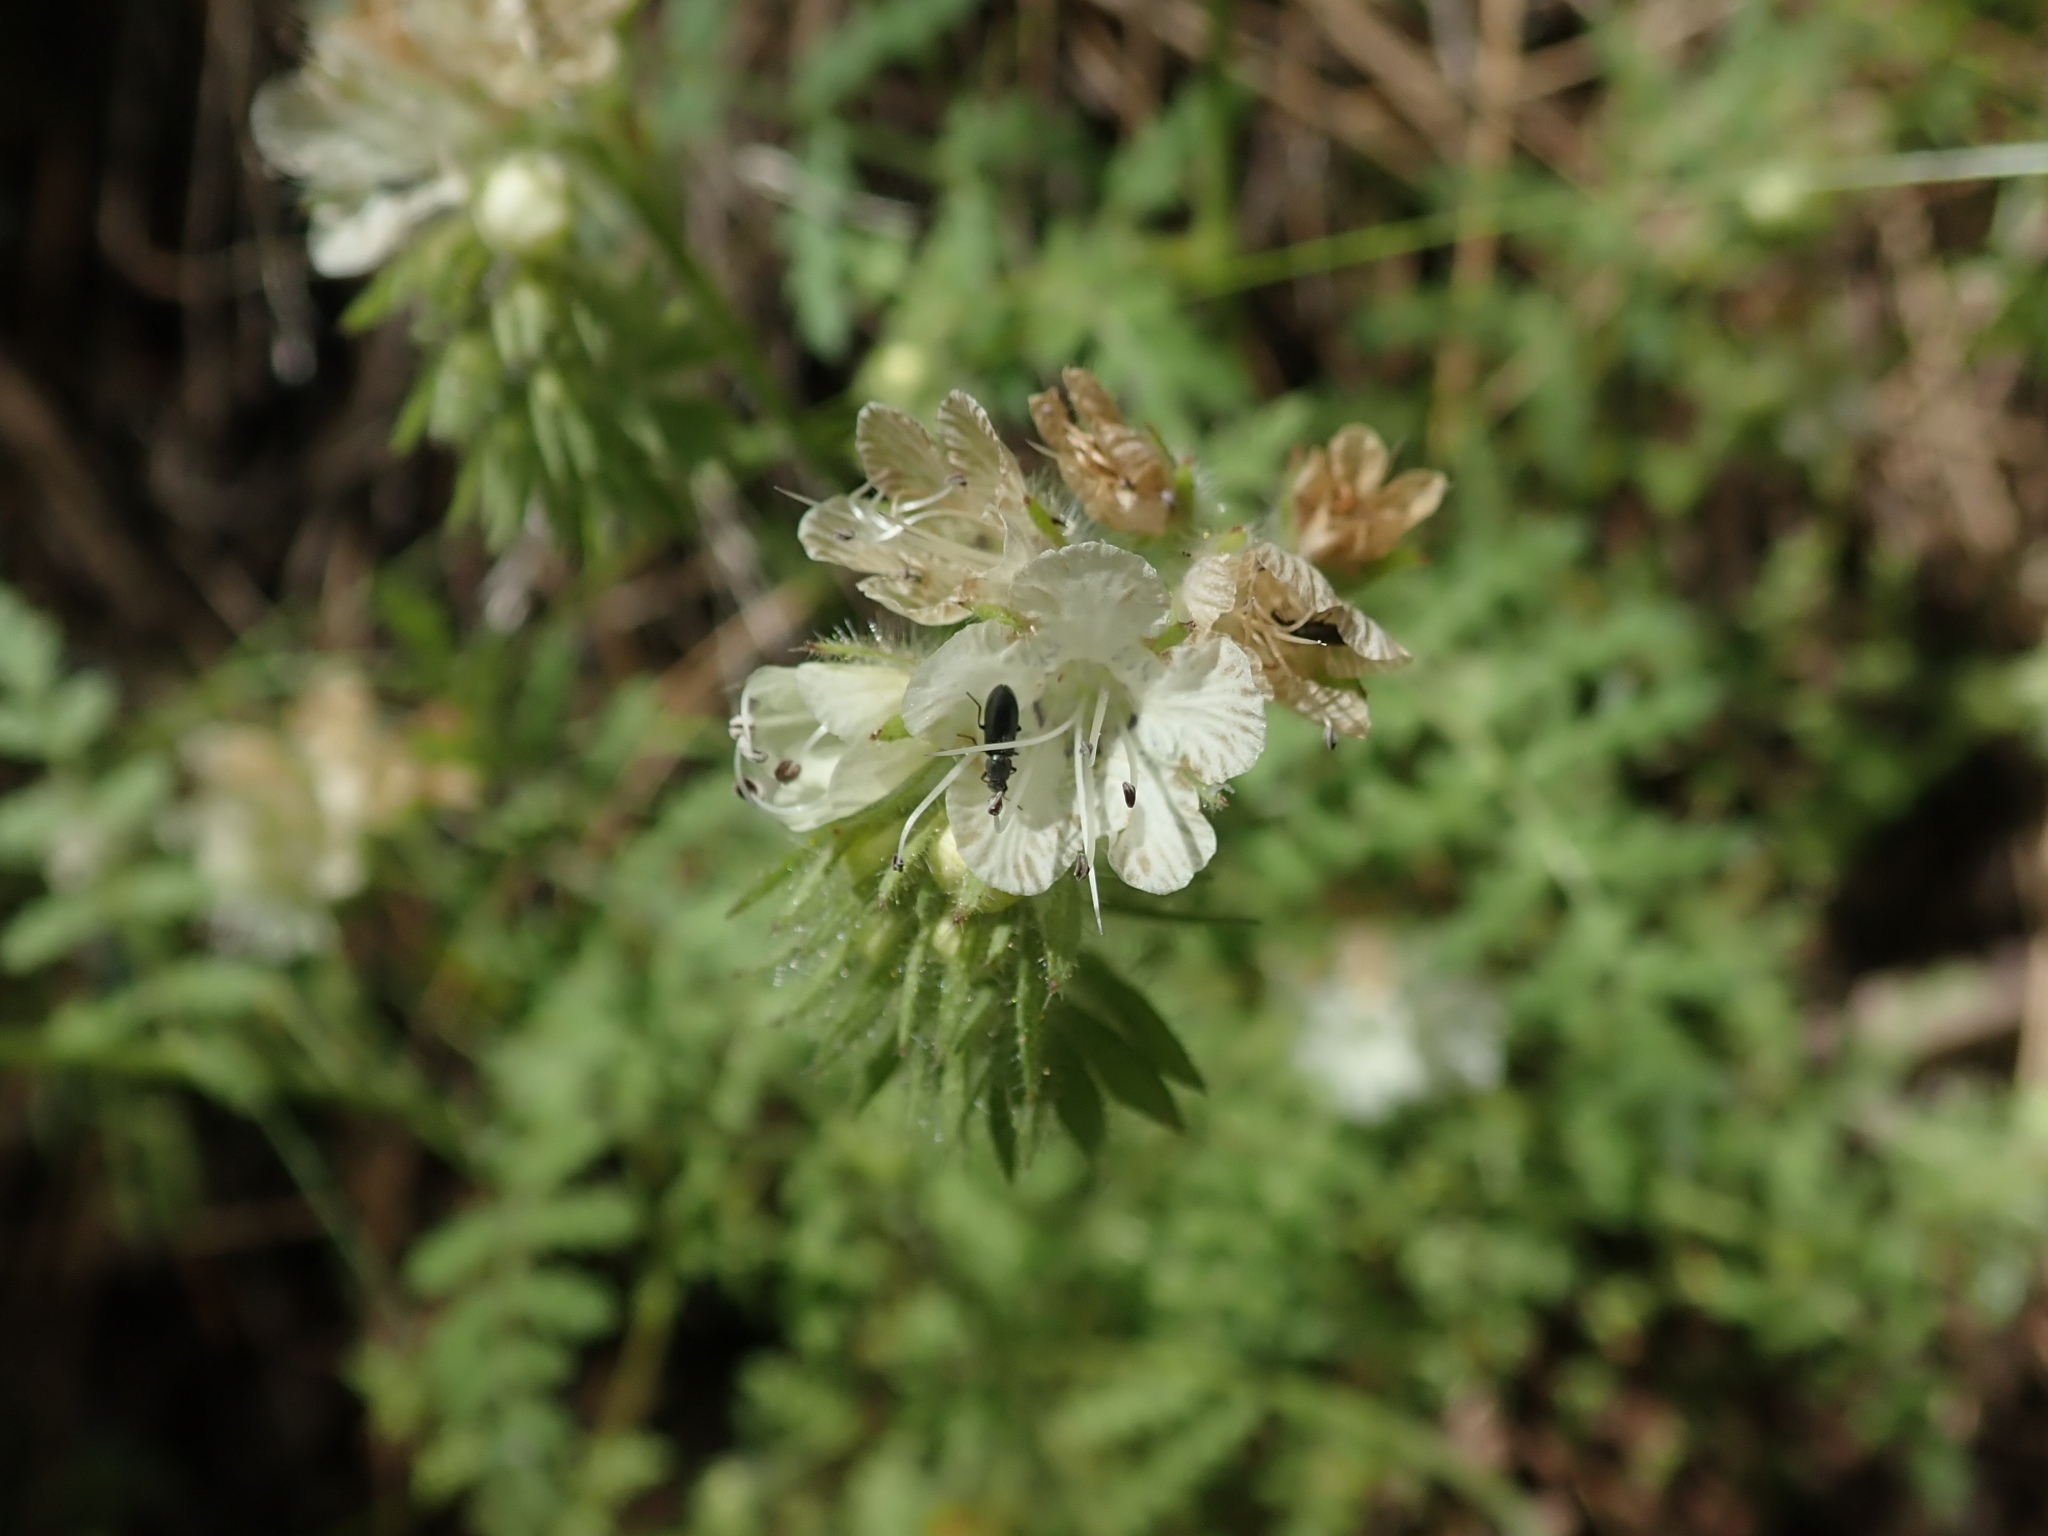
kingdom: Plantae
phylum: Tracheophyta
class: Magnoliopsida
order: Boraginales
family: Hydrophyllaceae
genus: Phacelia
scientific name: Phacelia distans
